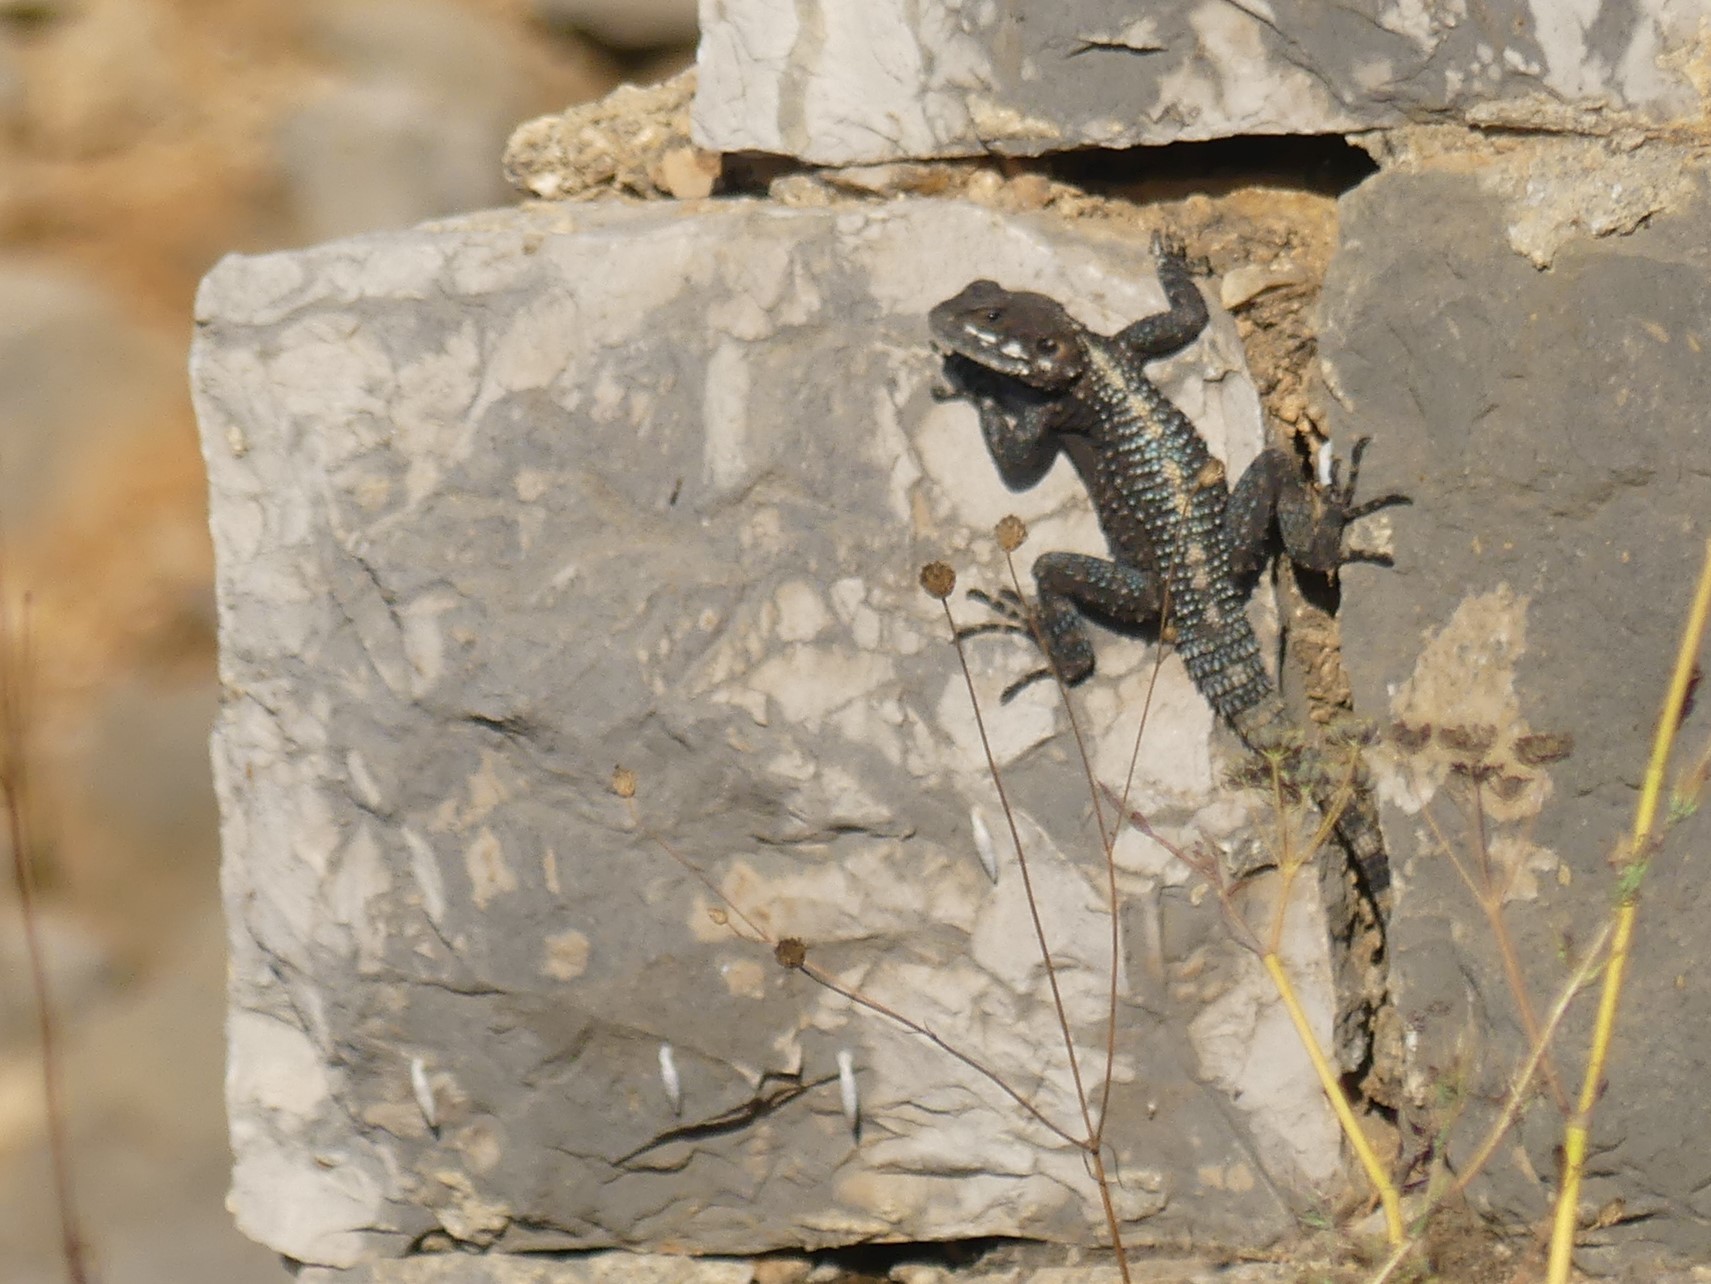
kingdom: Animalia
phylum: Chordata
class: Squamata
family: Agamidae
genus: Laudakia
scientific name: Laudakia vulgaris
